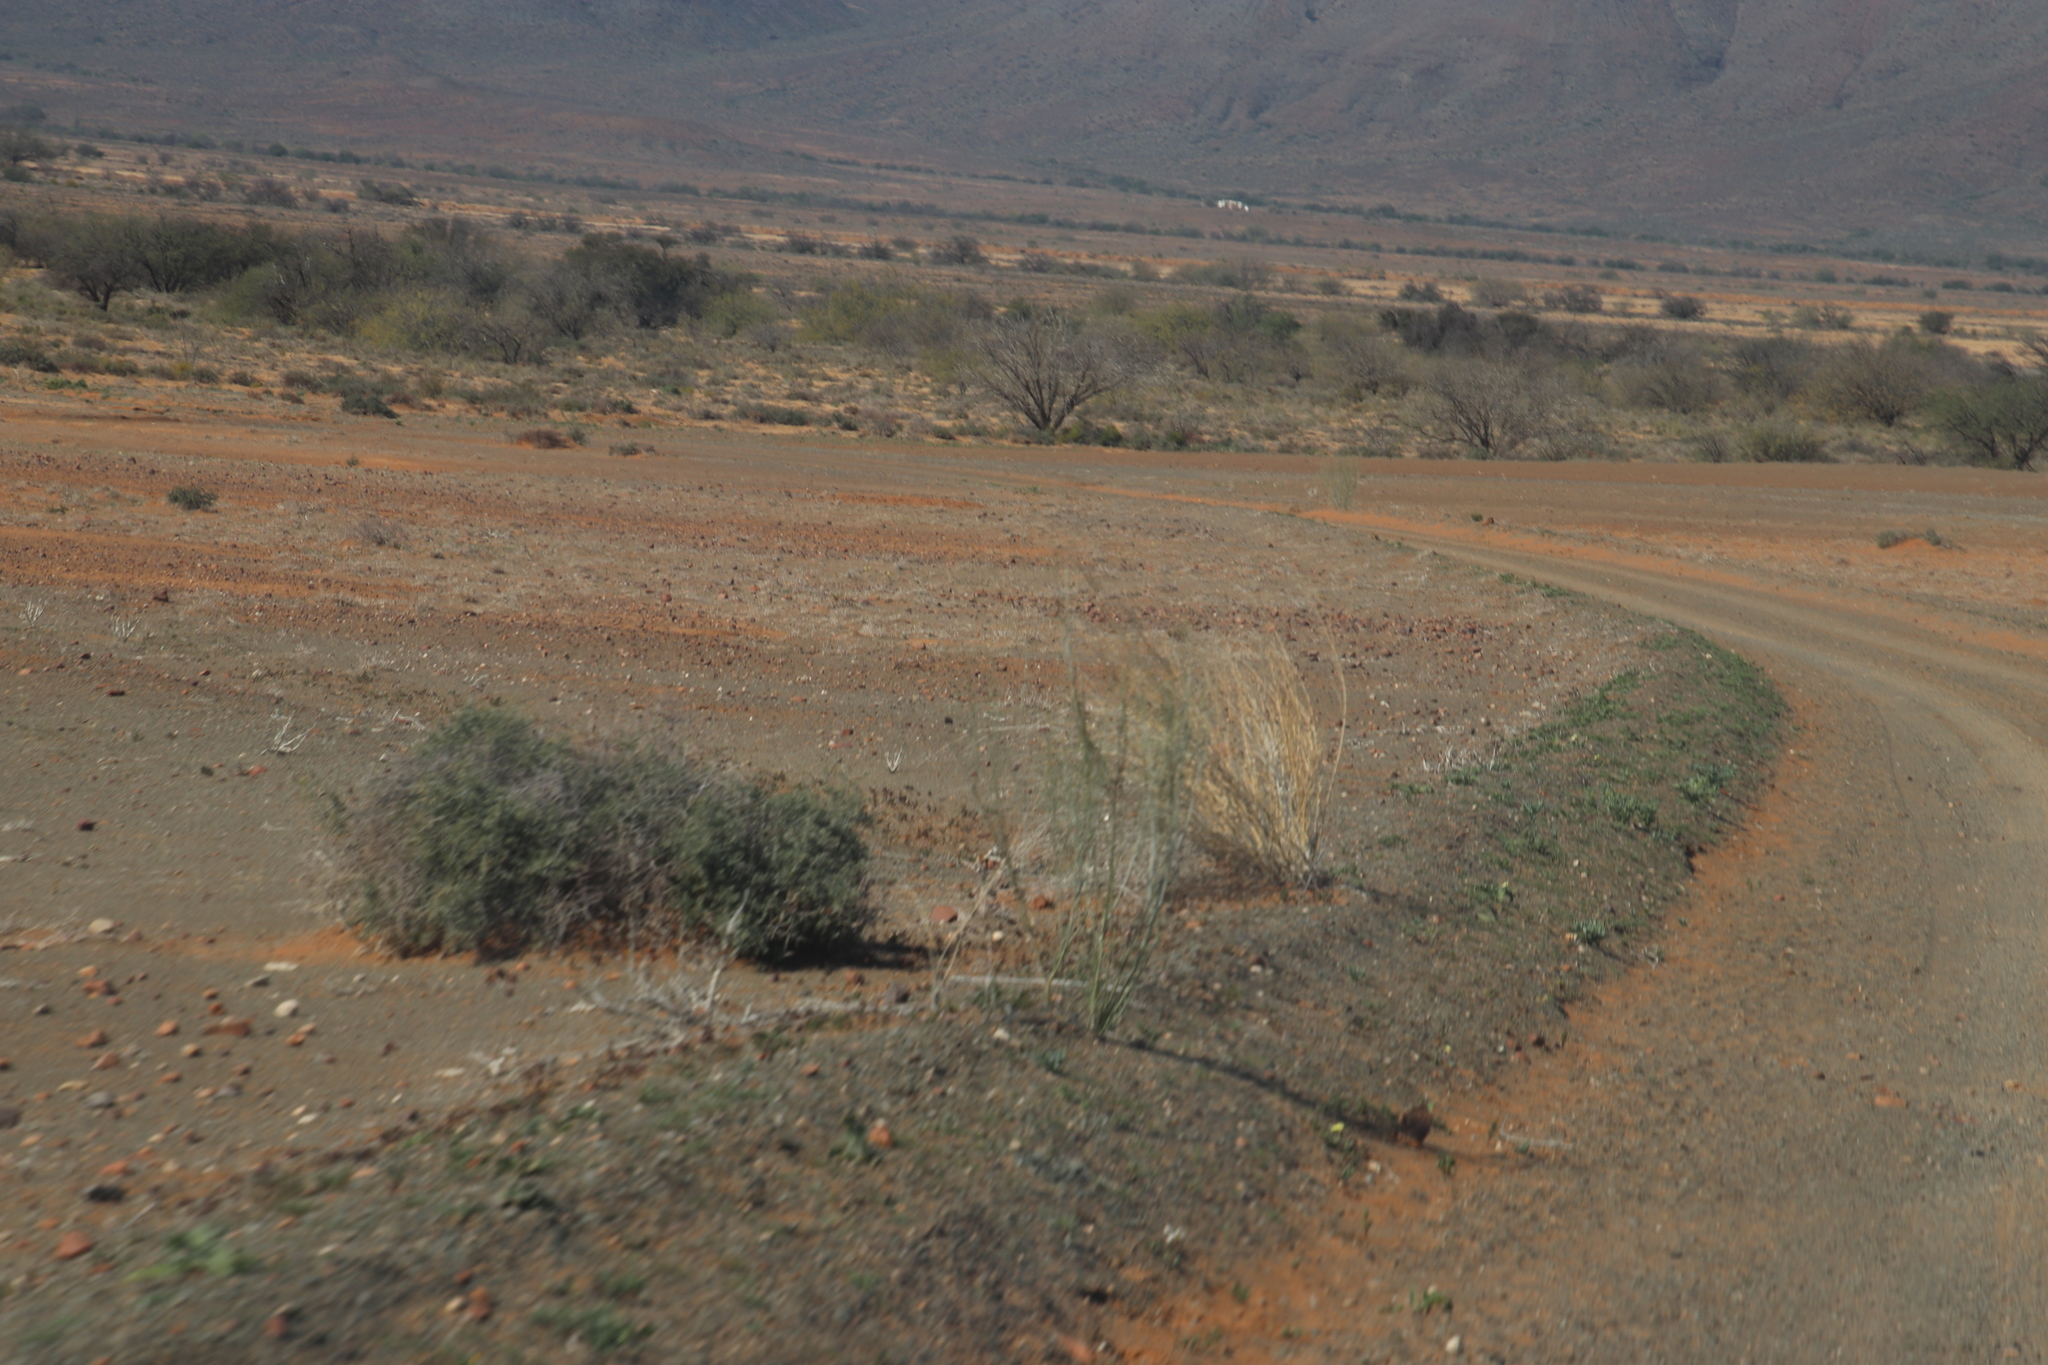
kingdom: Plantae
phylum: Tracheophyta
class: Magnoliopsida
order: Gentianales
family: Apocynaceae
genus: Gomphocarpus
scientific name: Gomphocarpus filiformis
